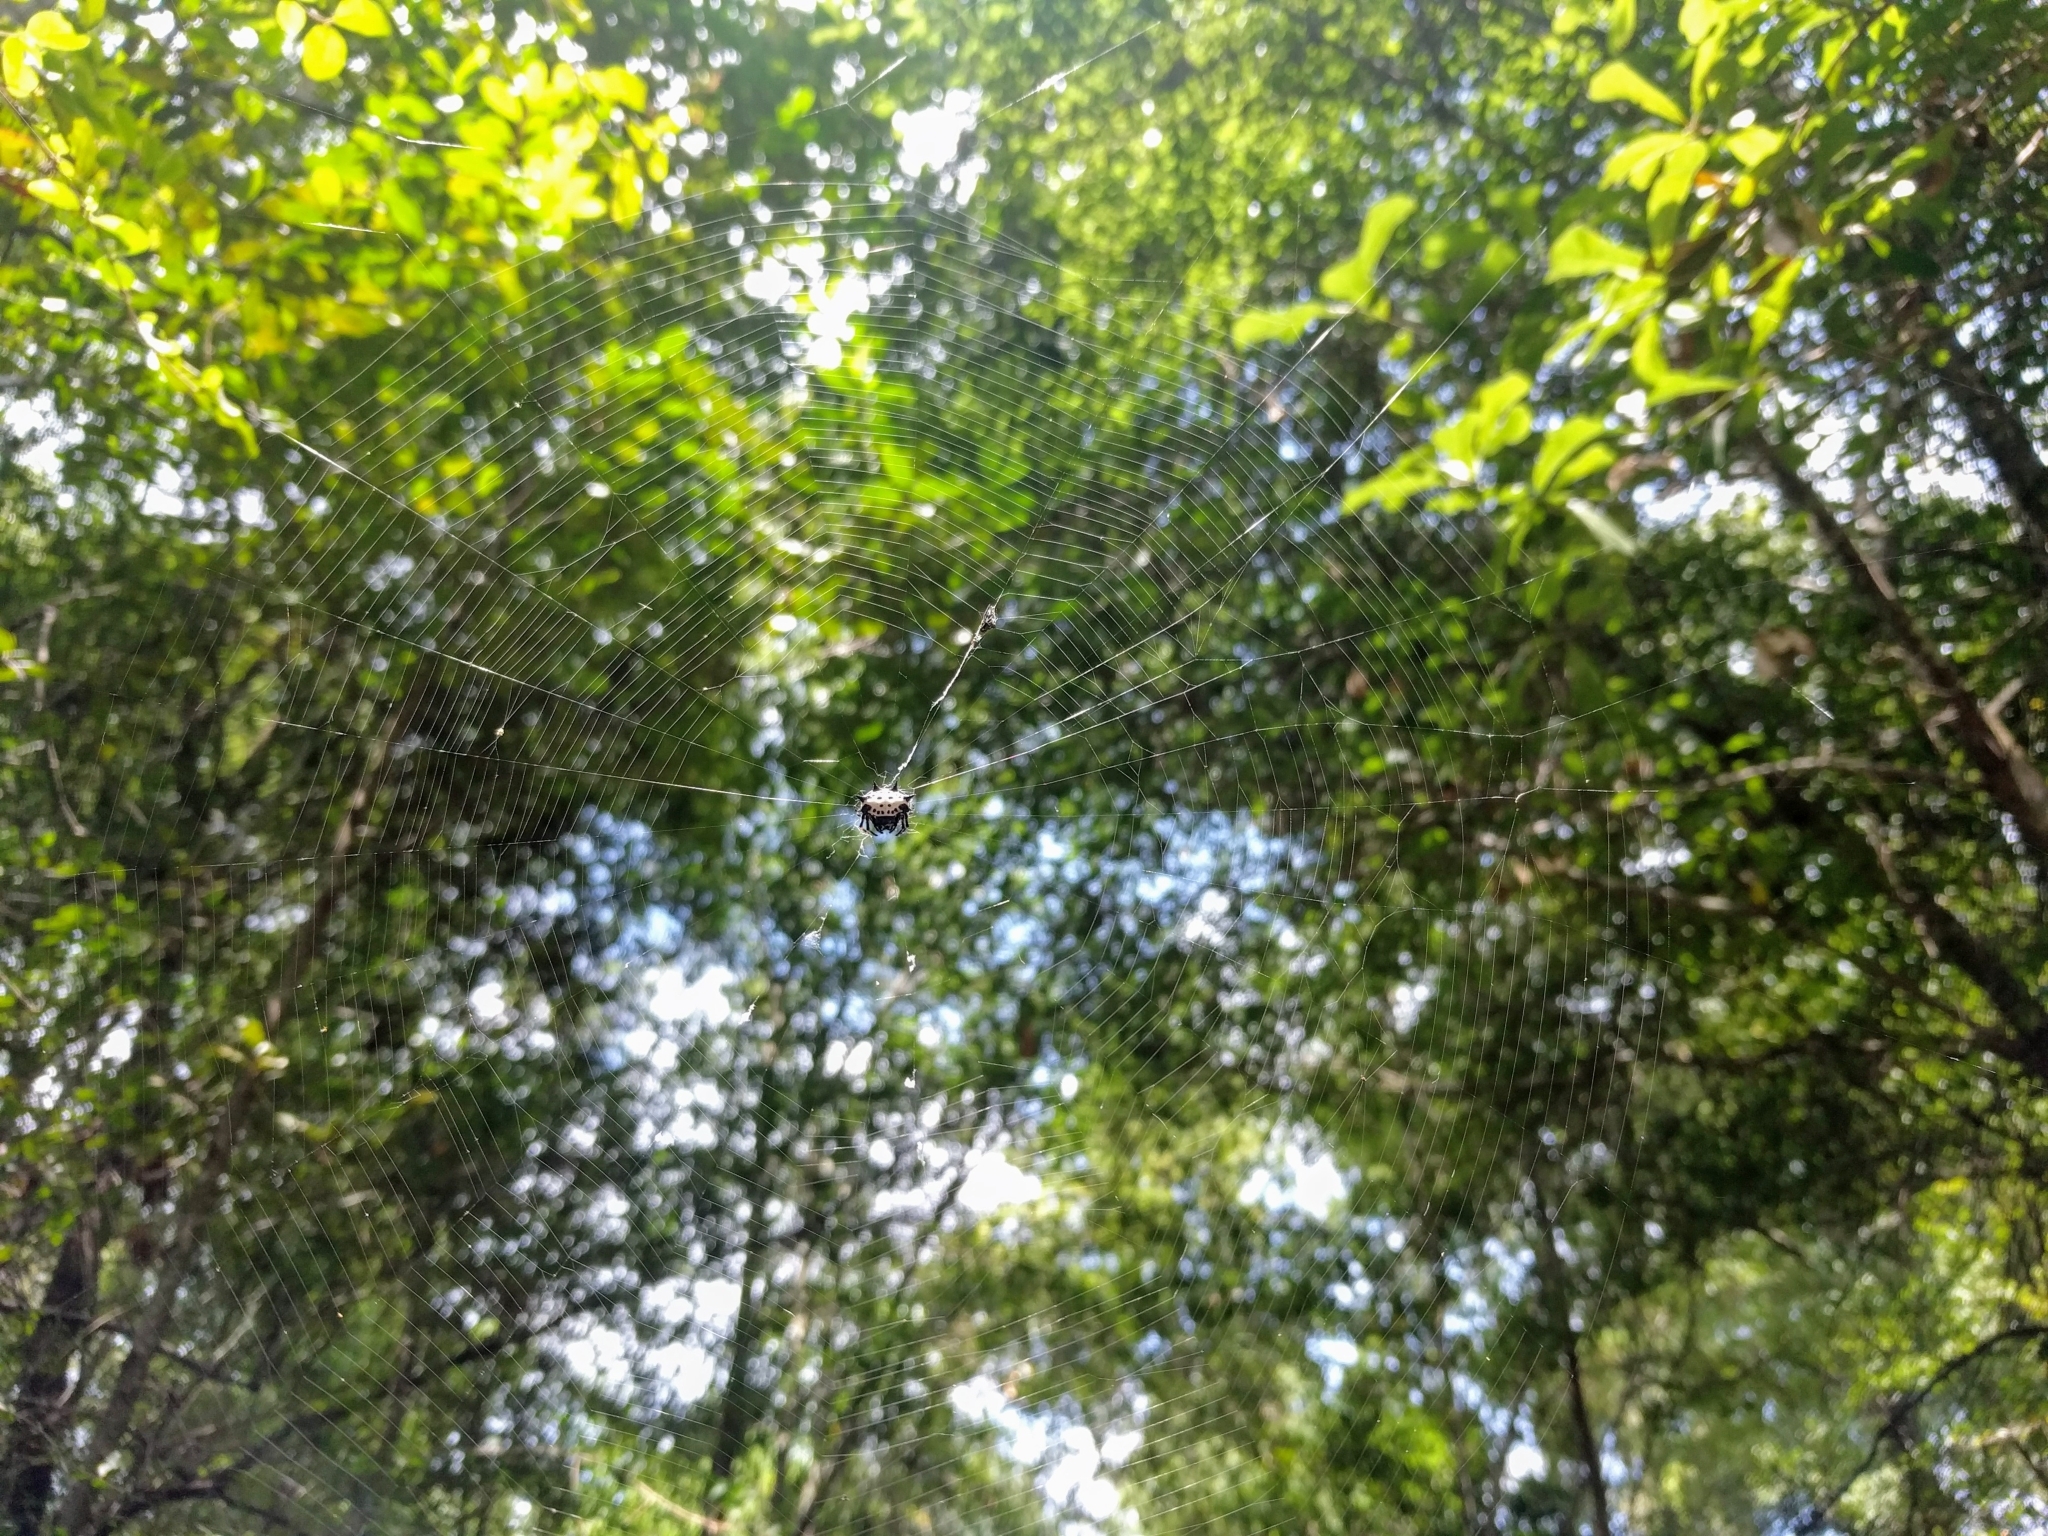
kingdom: Animalia
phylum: Arthropoda
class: Arachnida
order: Araneae
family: Araneidae
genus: Gasteracantha
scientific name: Gasteracantha cancriformis
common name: Orb weavers
